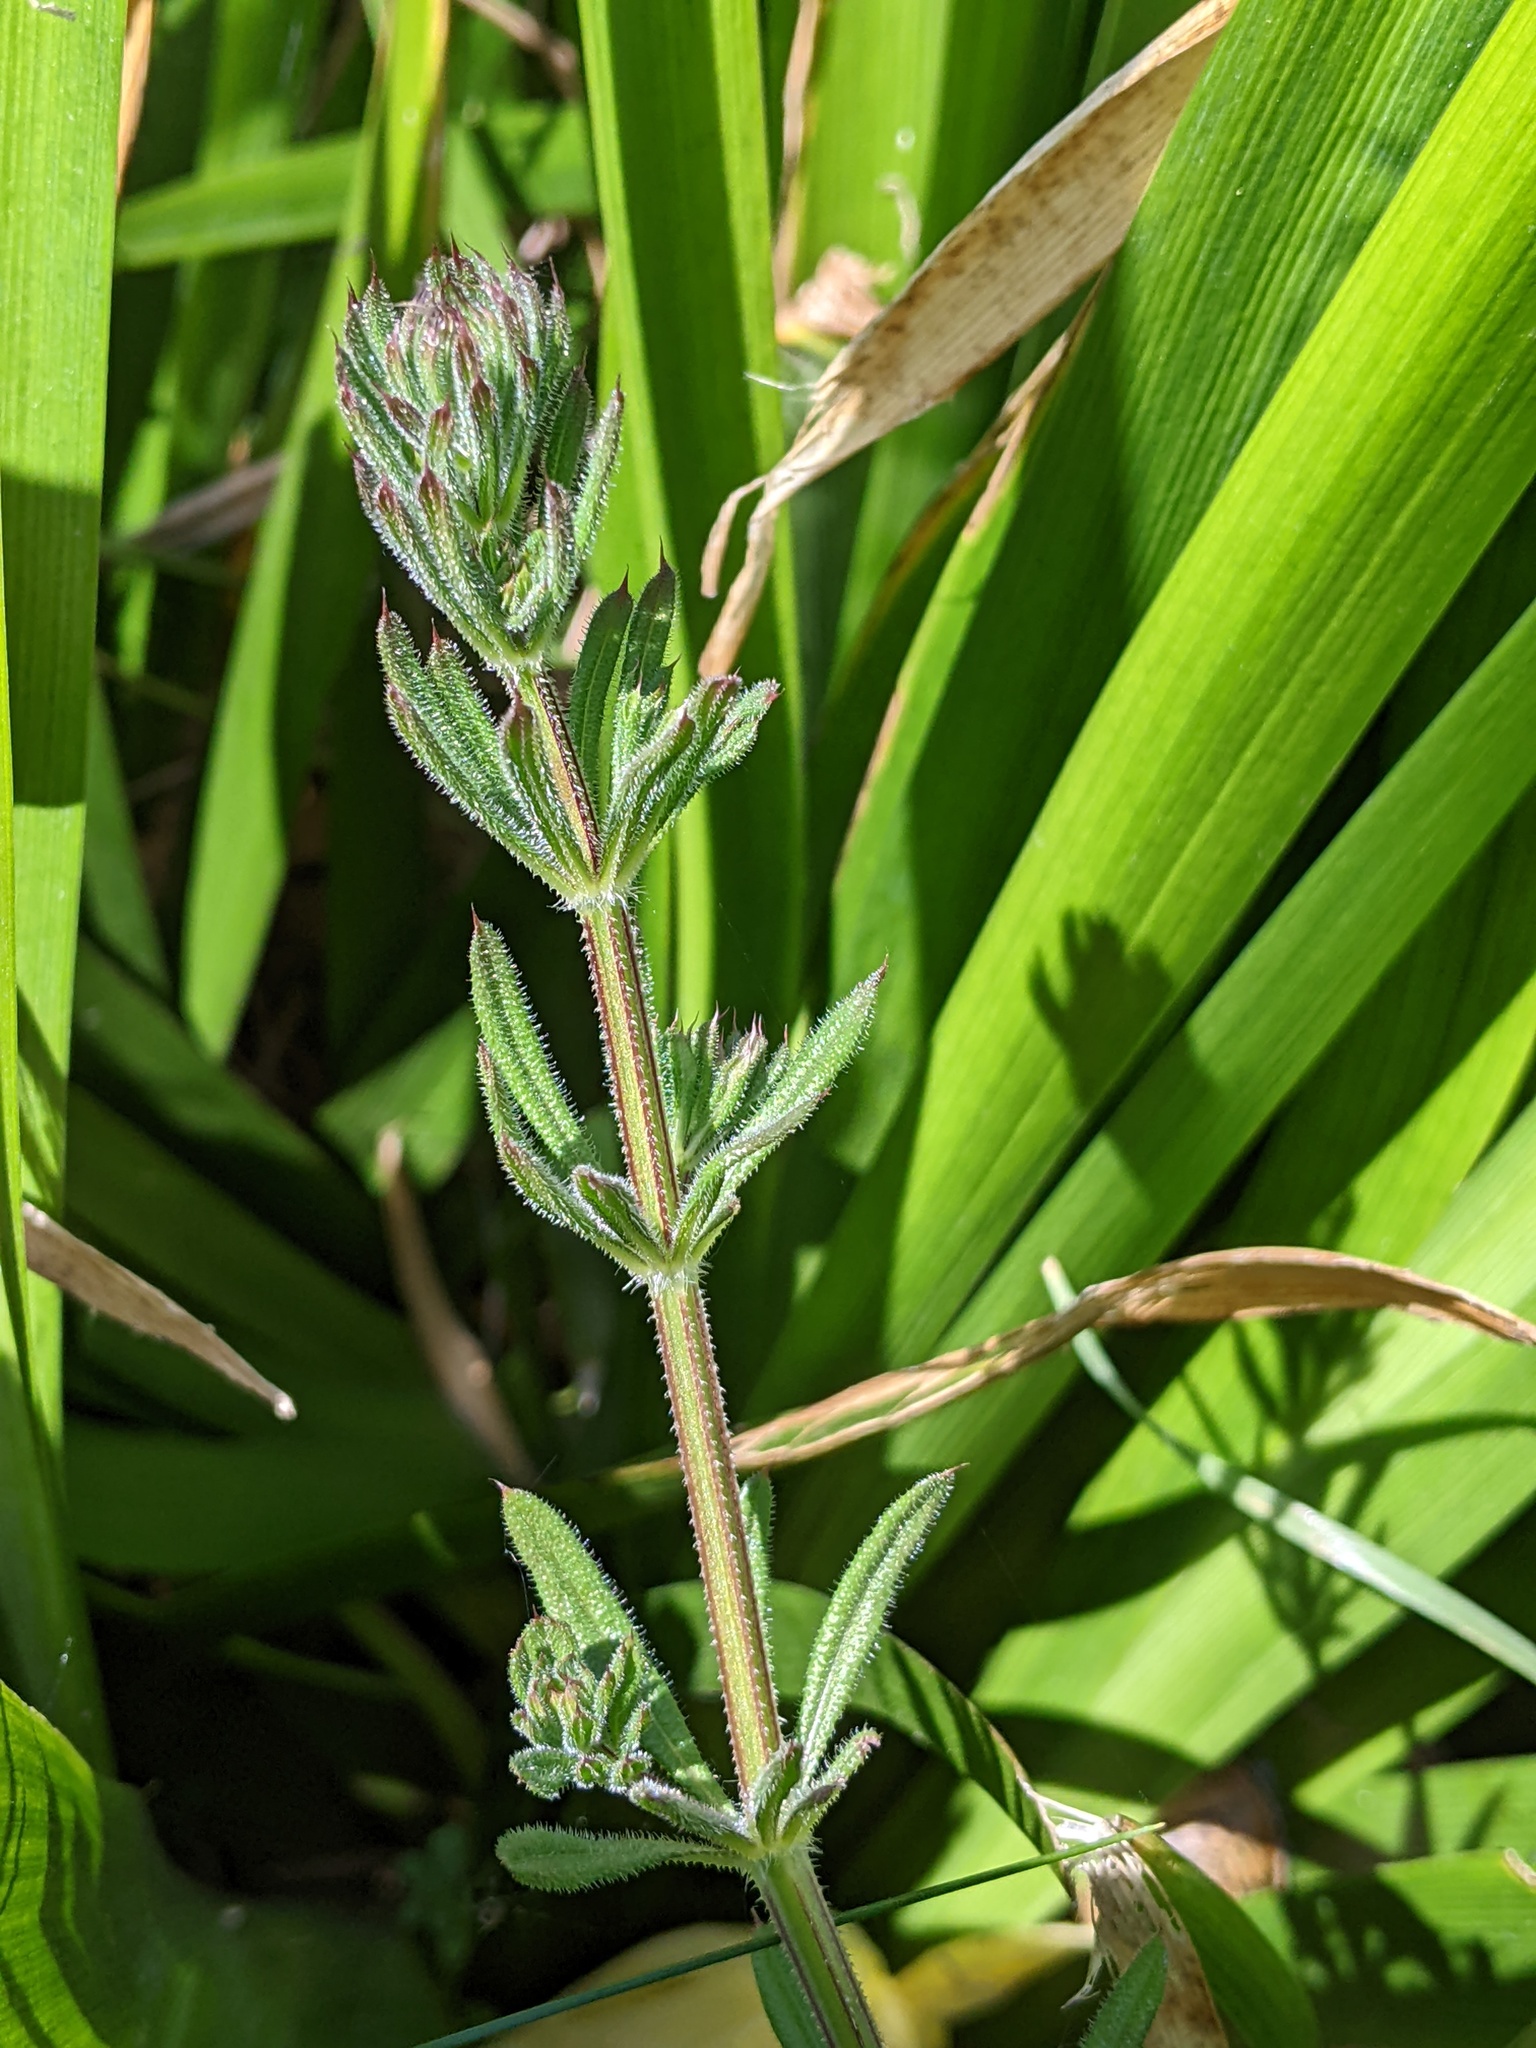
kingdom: Plantae
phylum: Tracheophyta
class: Magnoliopsida
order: Gentianales
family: Rubiaceae
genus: Galium
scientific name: Galium aparine
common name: Cleavers
